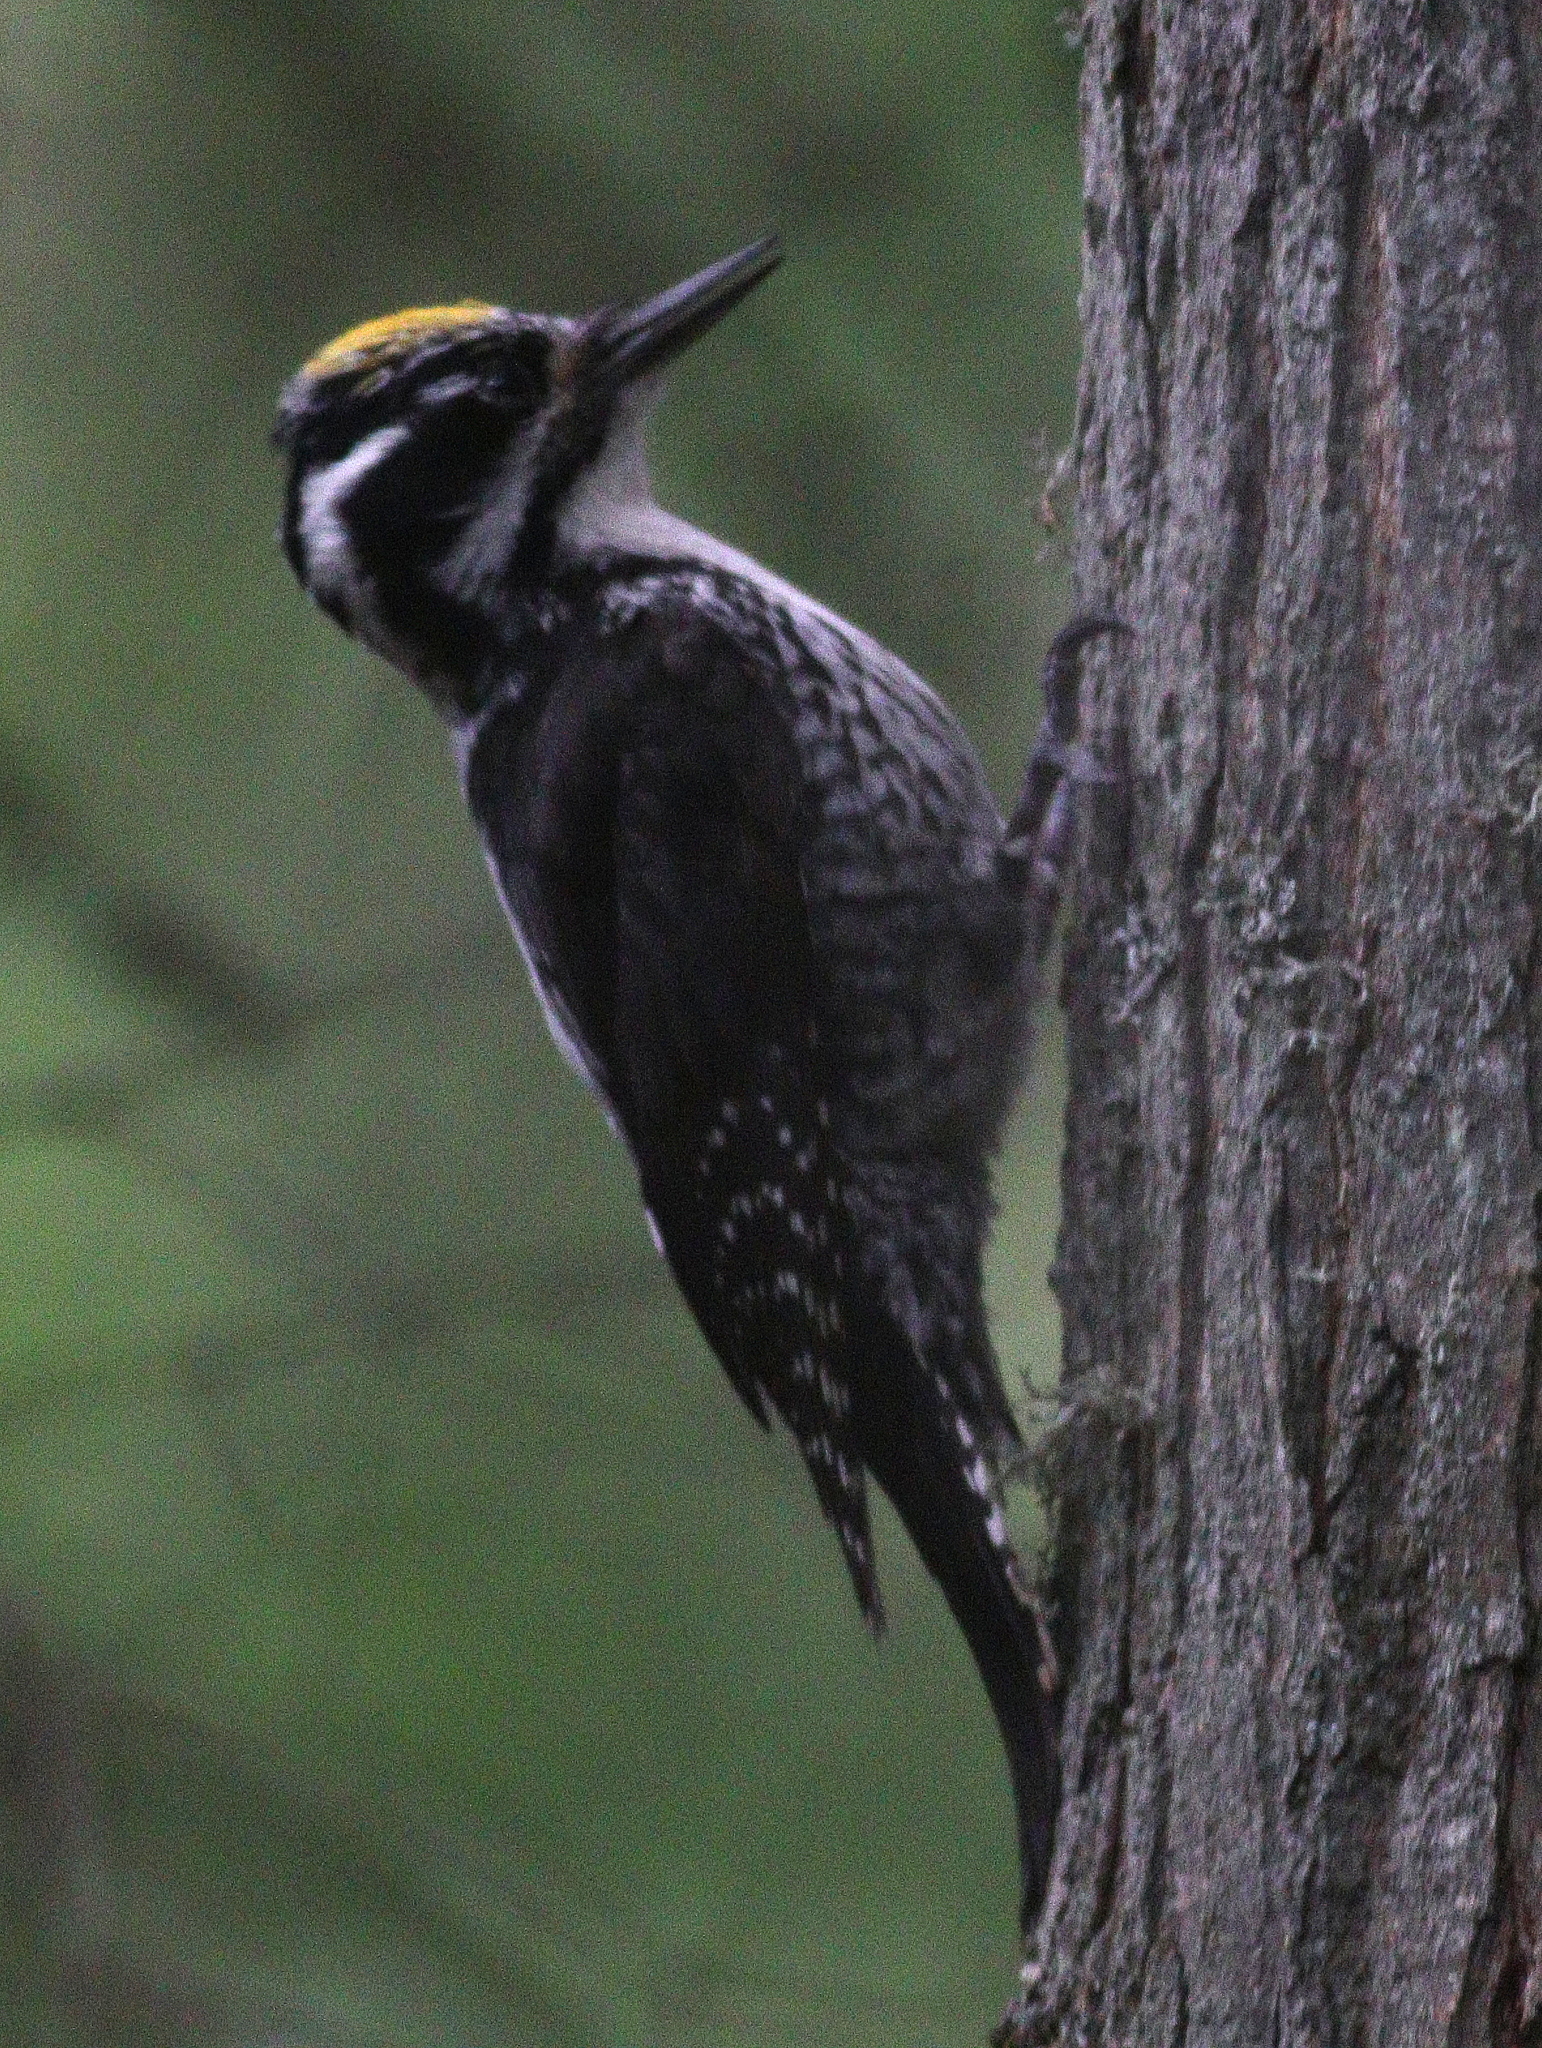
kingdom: Animalia
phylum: Chordata
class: Aves
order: Piciformes
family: Picidae
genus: Picoides
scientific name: Picoides tridactylus
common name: Eurasian three-toed woodpecker
